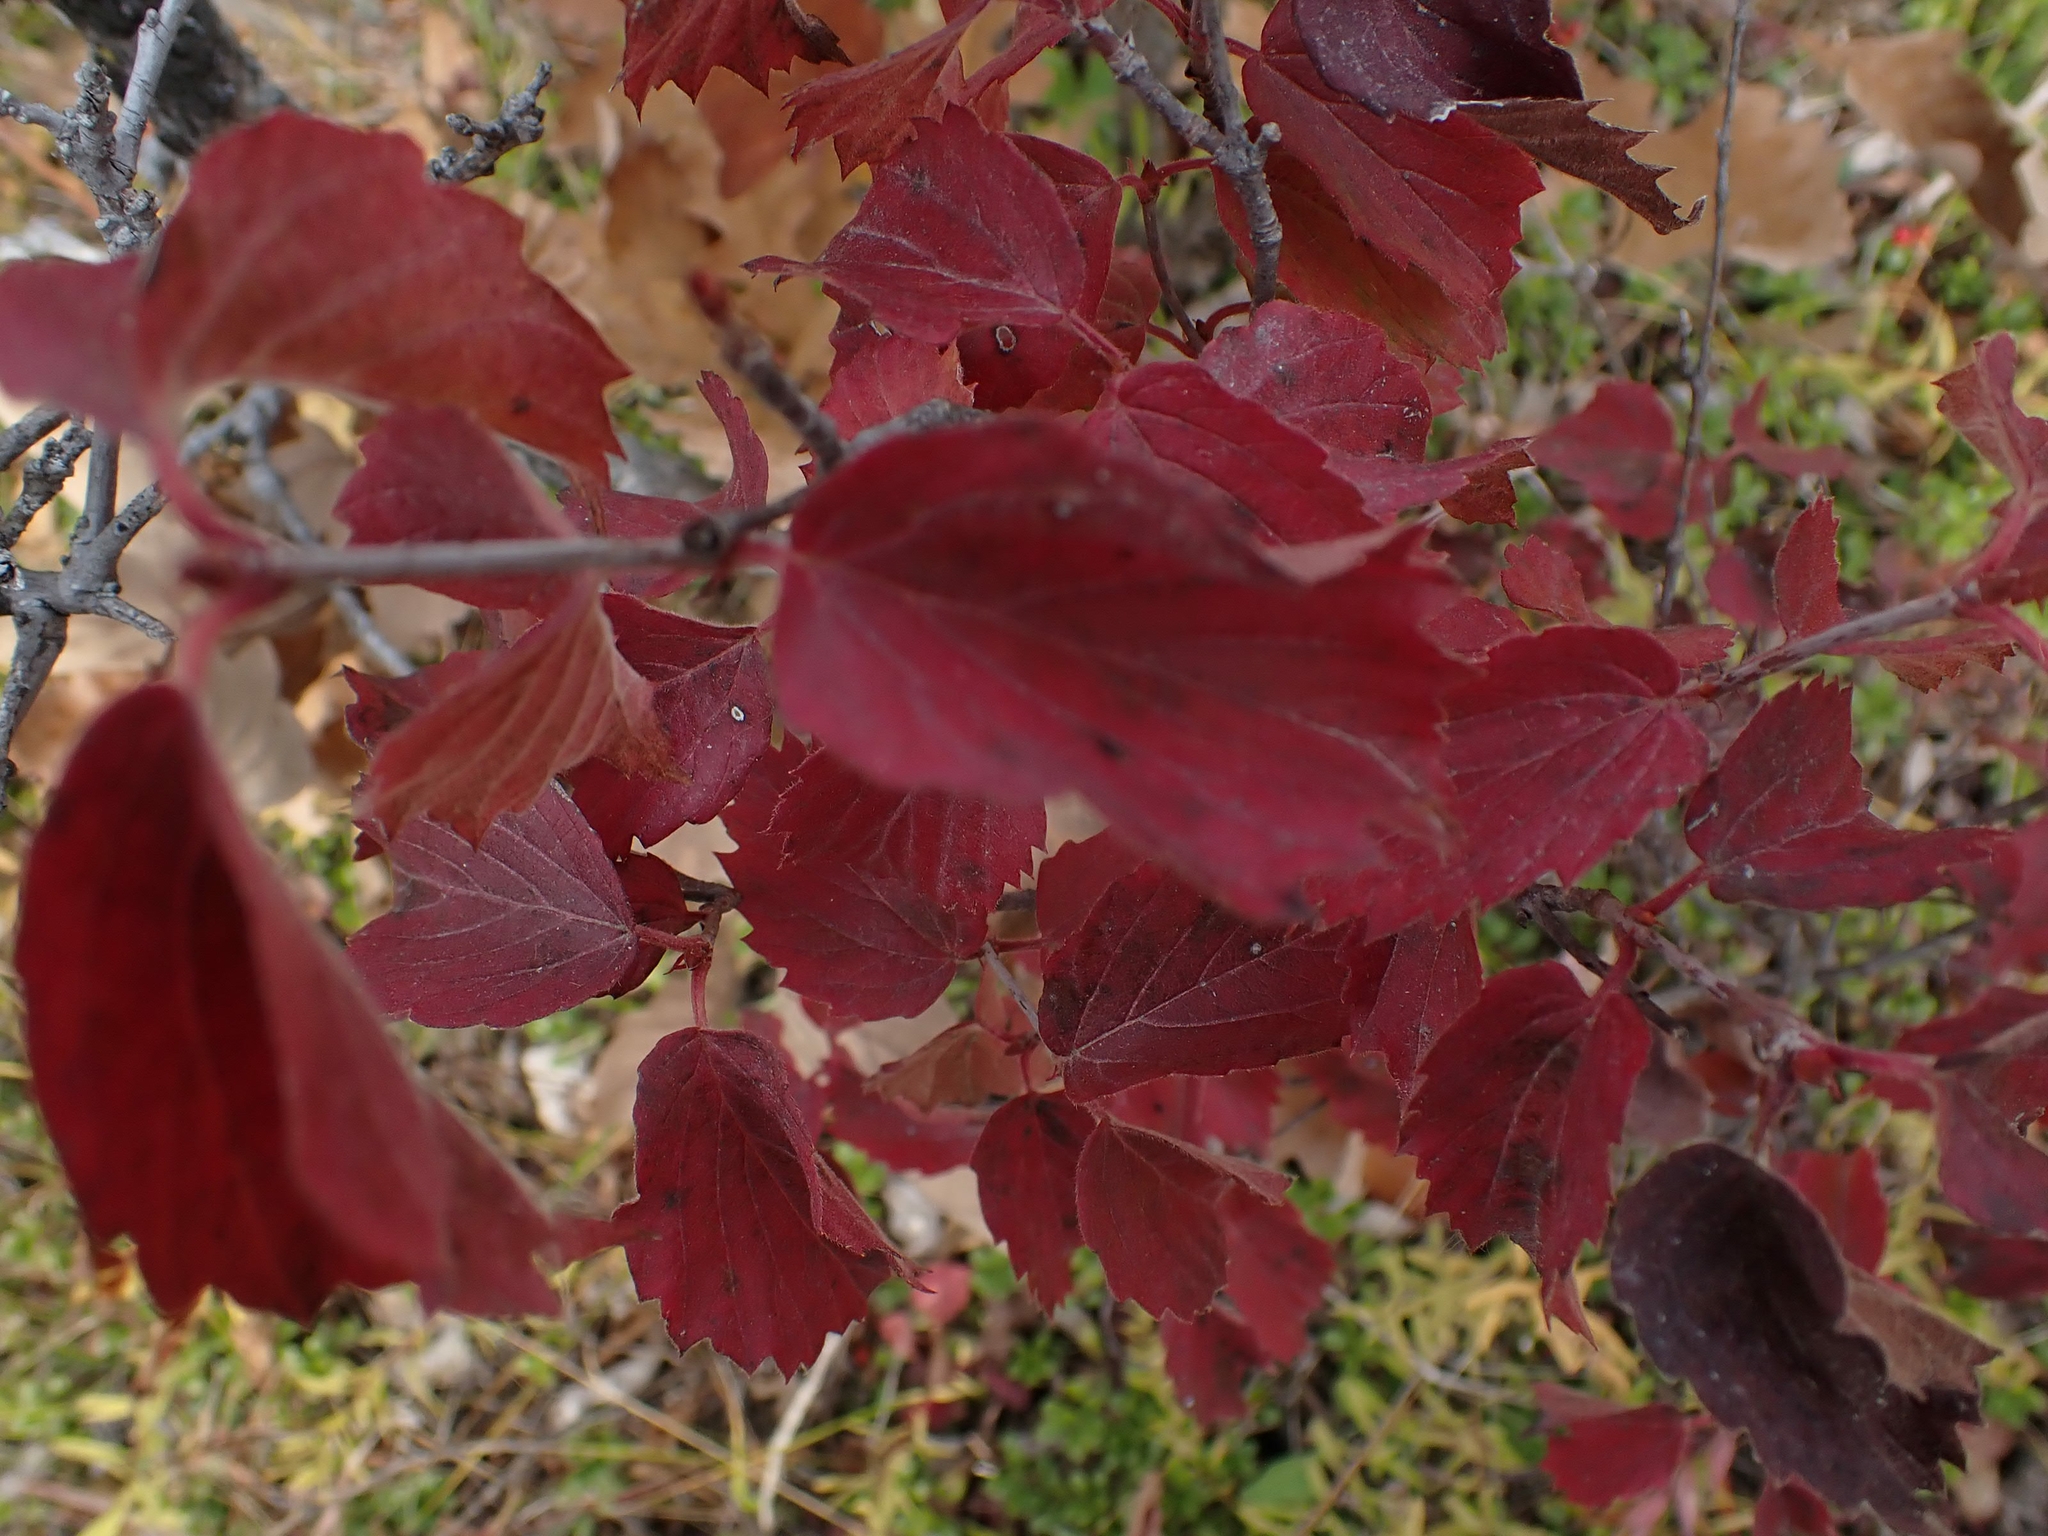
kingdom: Plantae
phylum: Tracheophyta
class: Magnoliopsida
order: Dipsacales
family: Viburnaceae
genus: Viburnum
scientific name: Viburnum rafinesqueanum
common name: Downy arrow-wood
